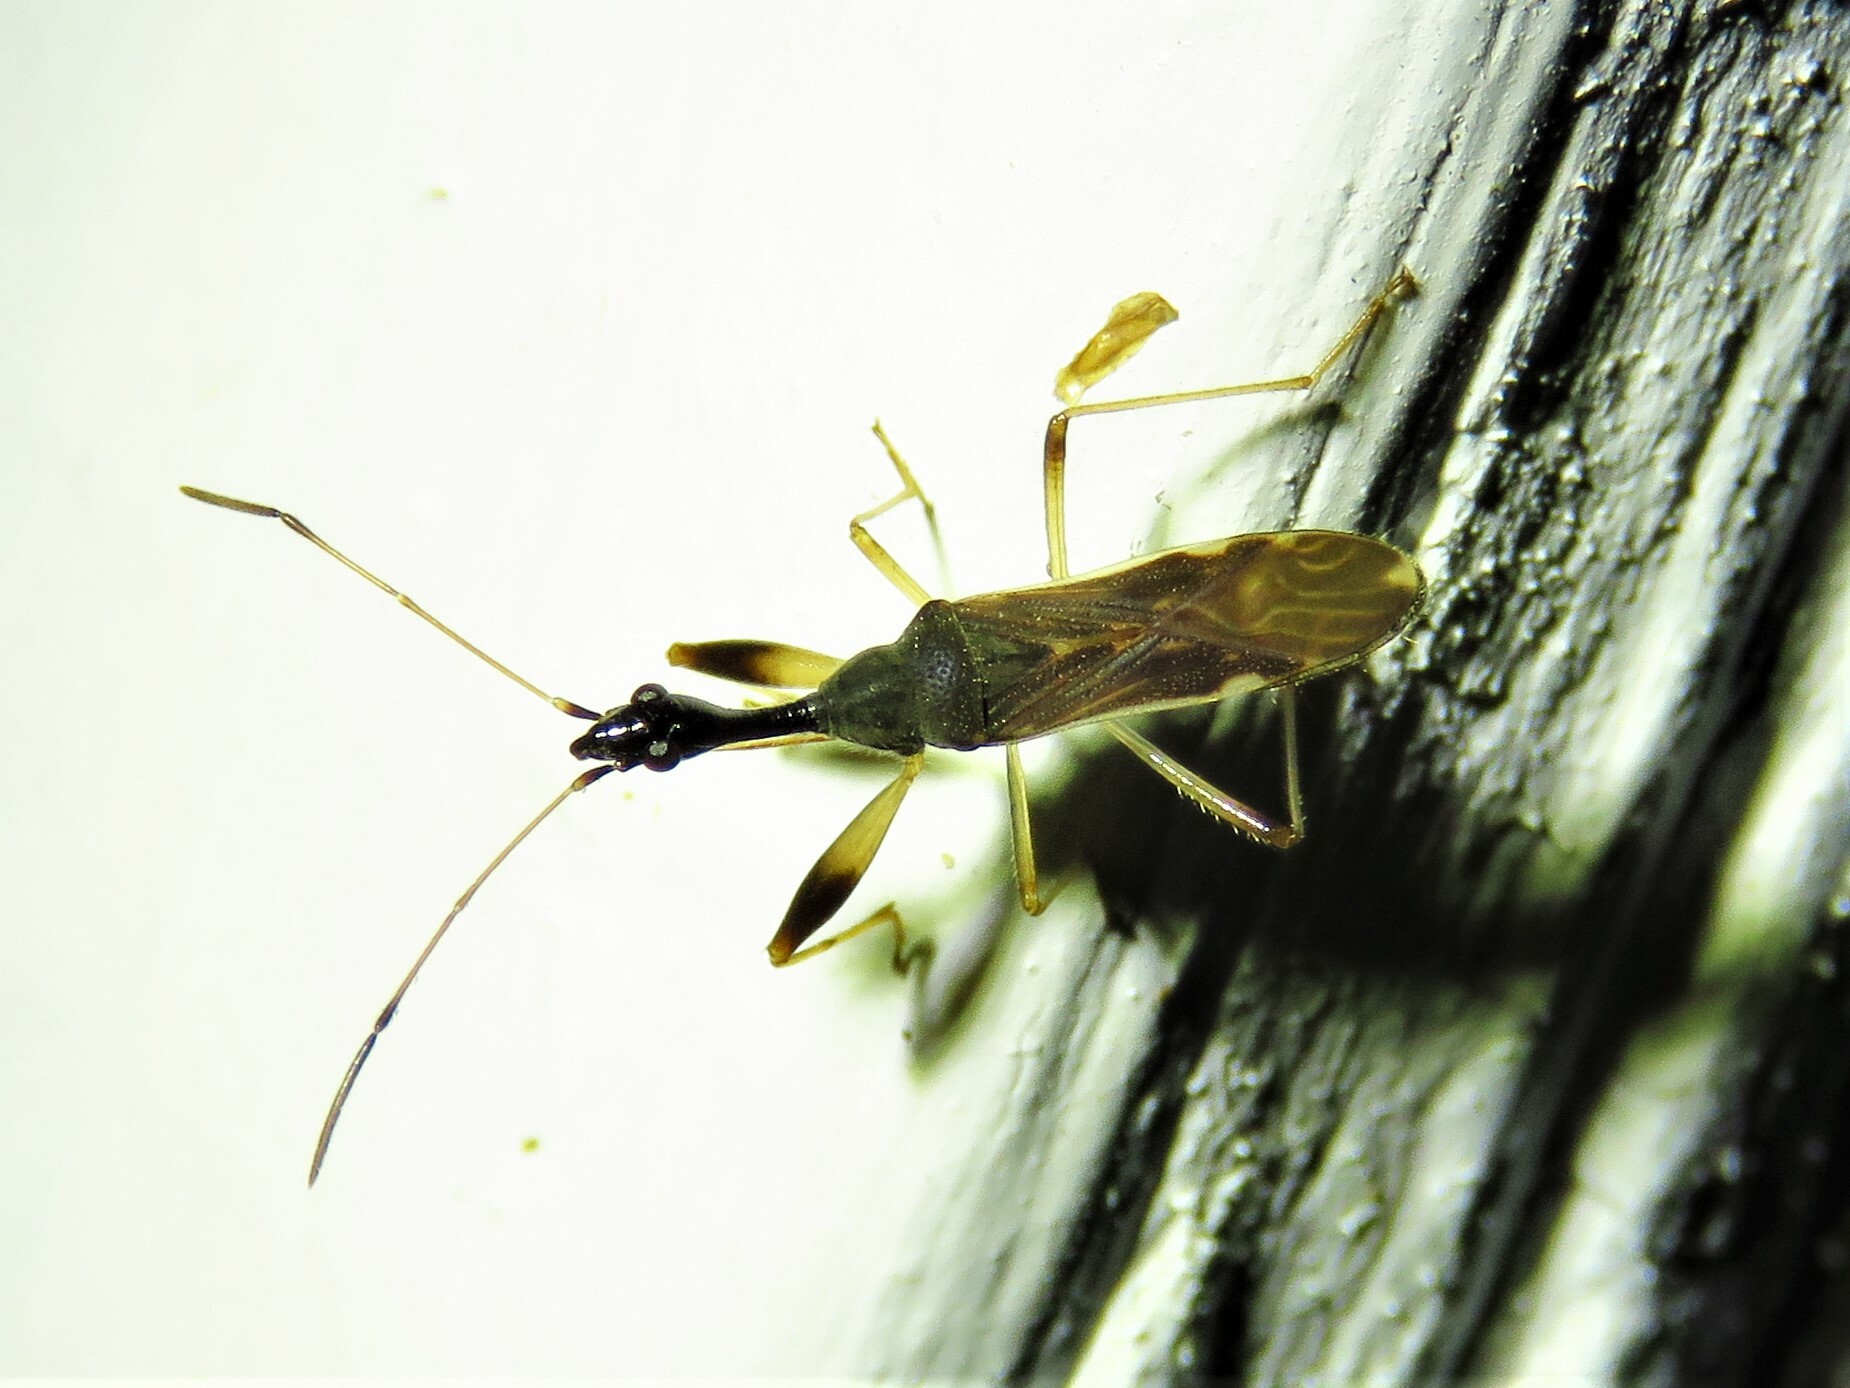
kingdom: Animalia
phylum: Arthropoda
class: Insecta
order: Hemiptera
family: Rhyparochromidae
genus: Myodocha
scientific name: Myodocha serripes
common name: Long-necked seed bug
